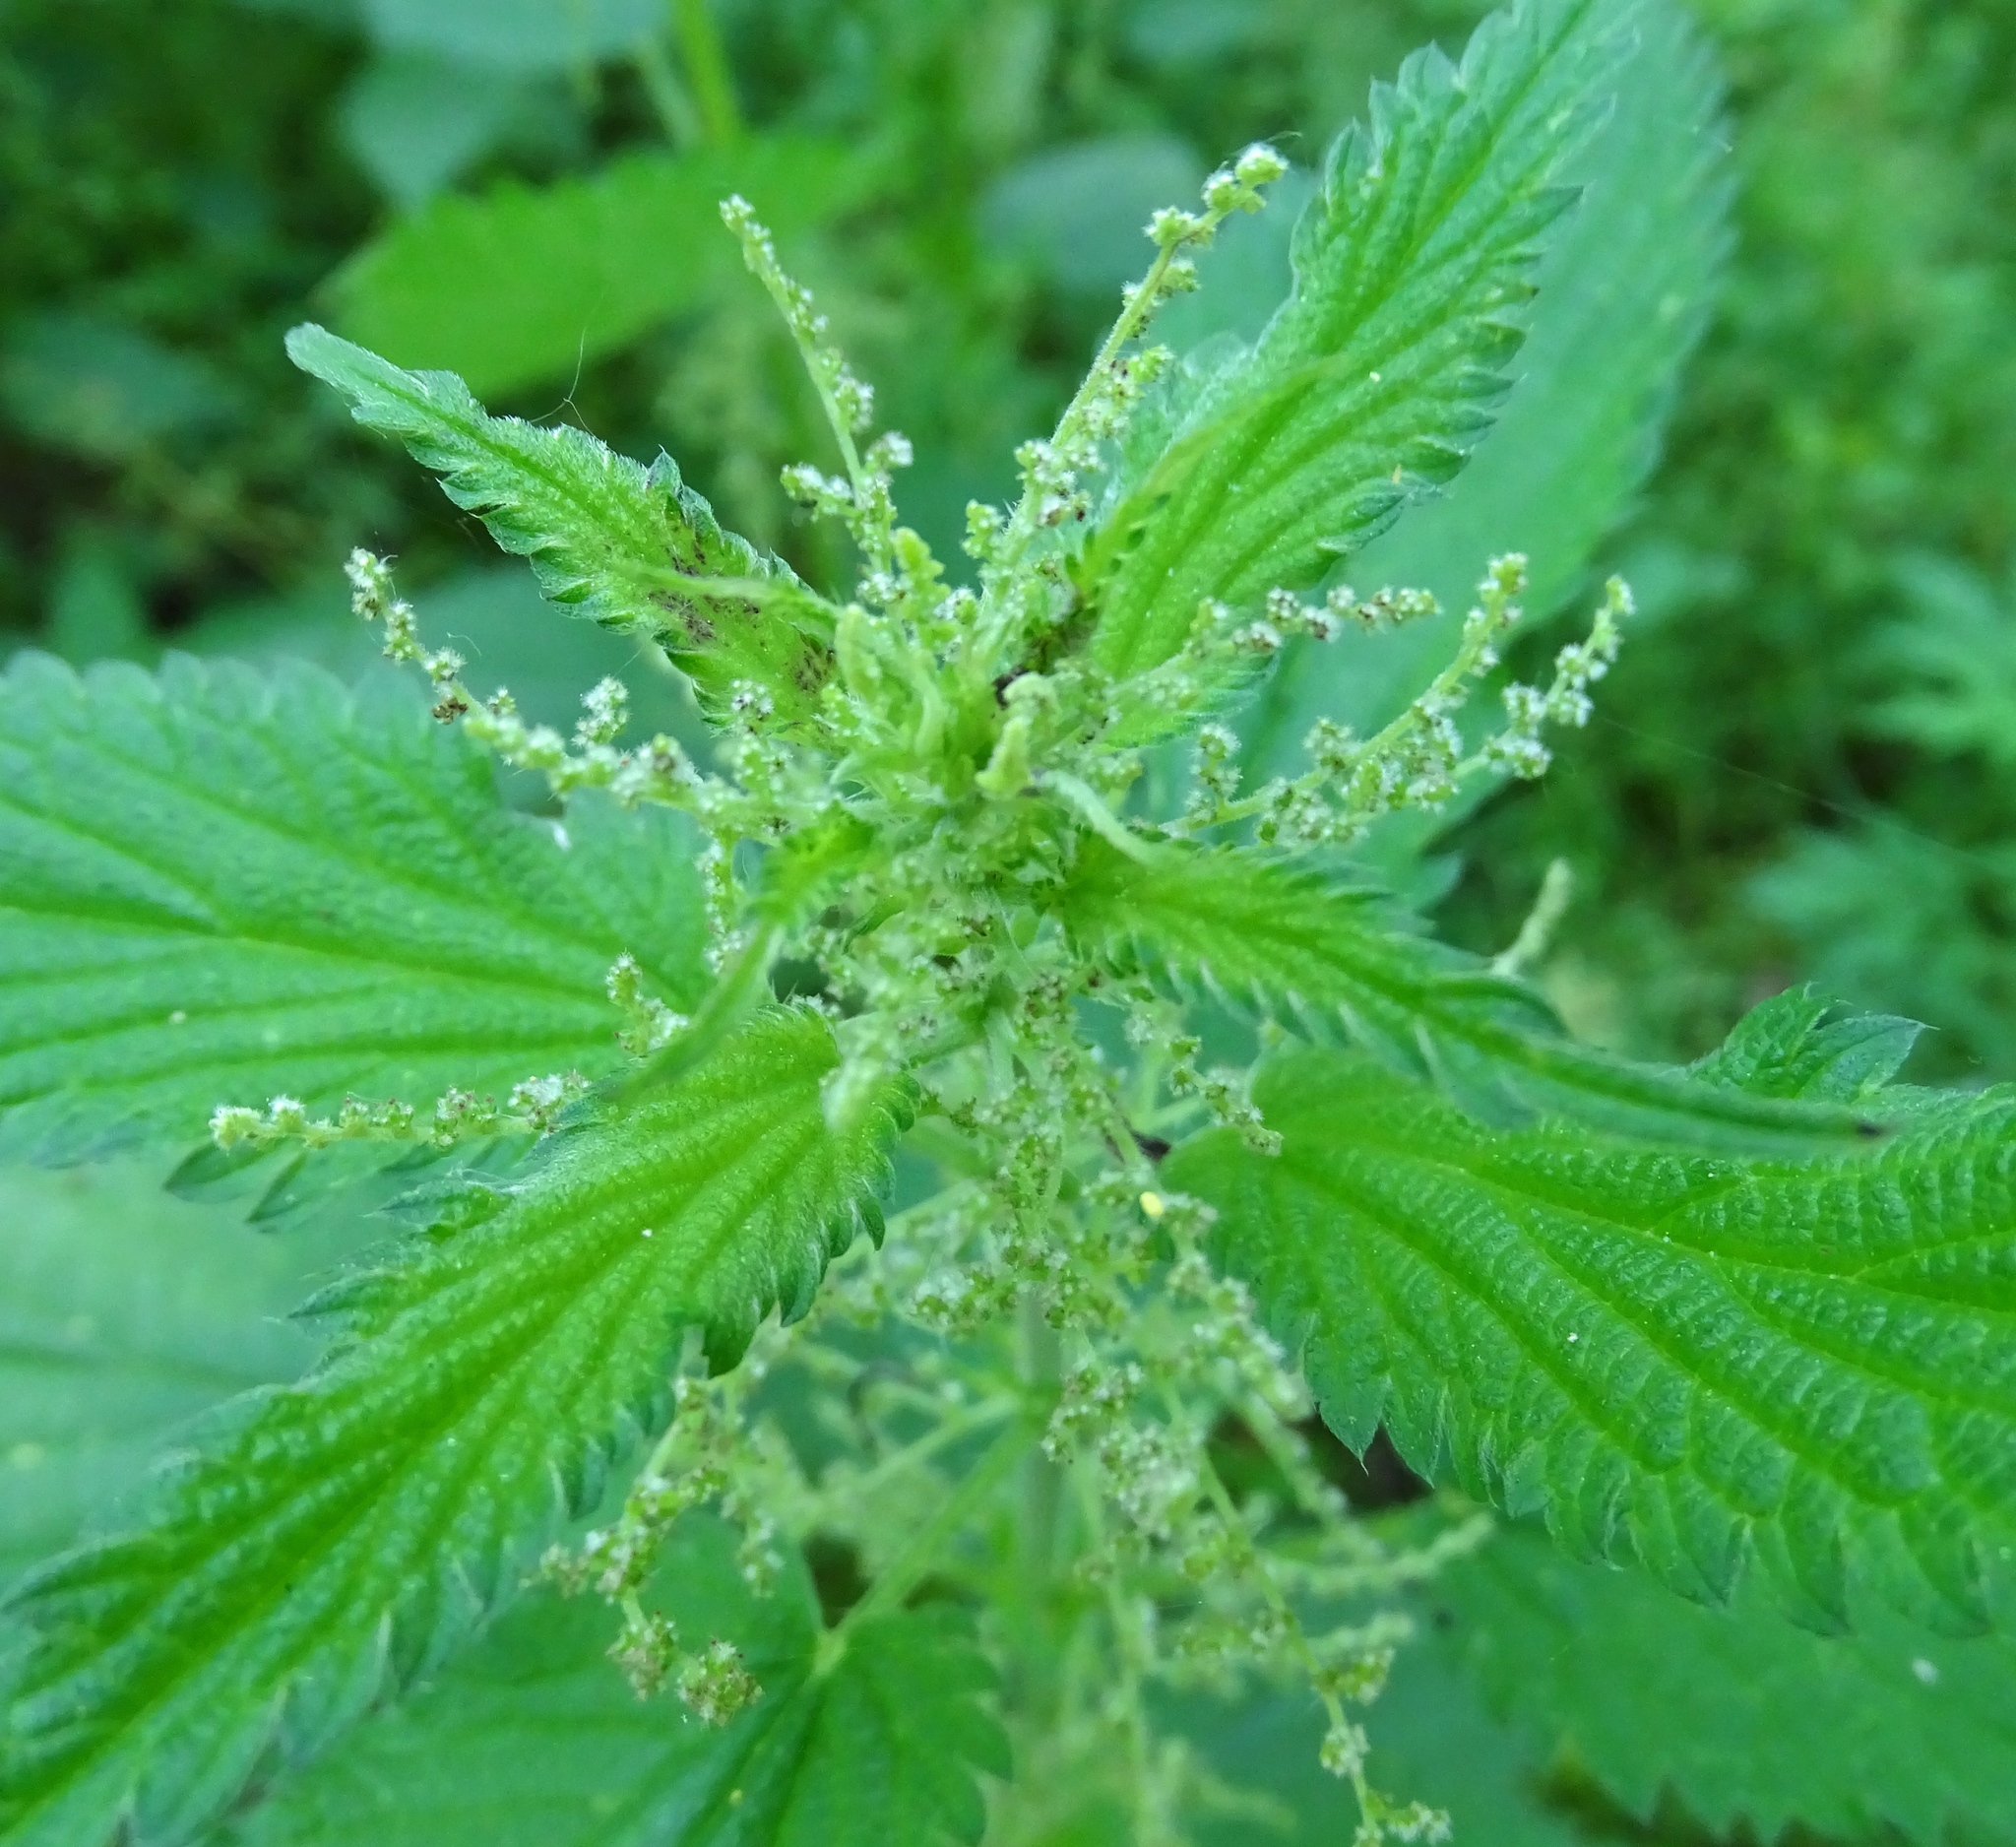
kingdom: Plantae
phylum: Tracheophyta
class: Magnoliopsida
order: Rosales
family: Urticaceae
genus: Urtica
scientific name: Urtica dioica
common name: Common nettle
